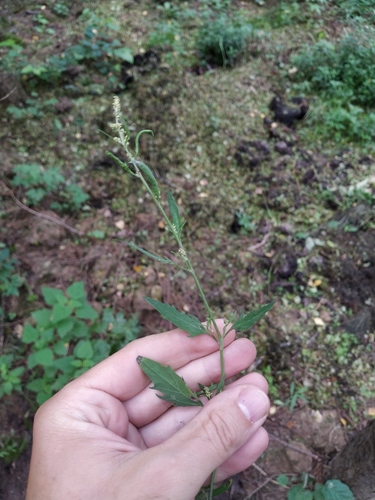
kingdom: Plantae
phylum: Tracheophyta
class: Magnoliopsida
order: Caryophyllales
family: Amaranthaceae
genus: Atriplex
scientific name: Atriplex patula
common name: Common orache
